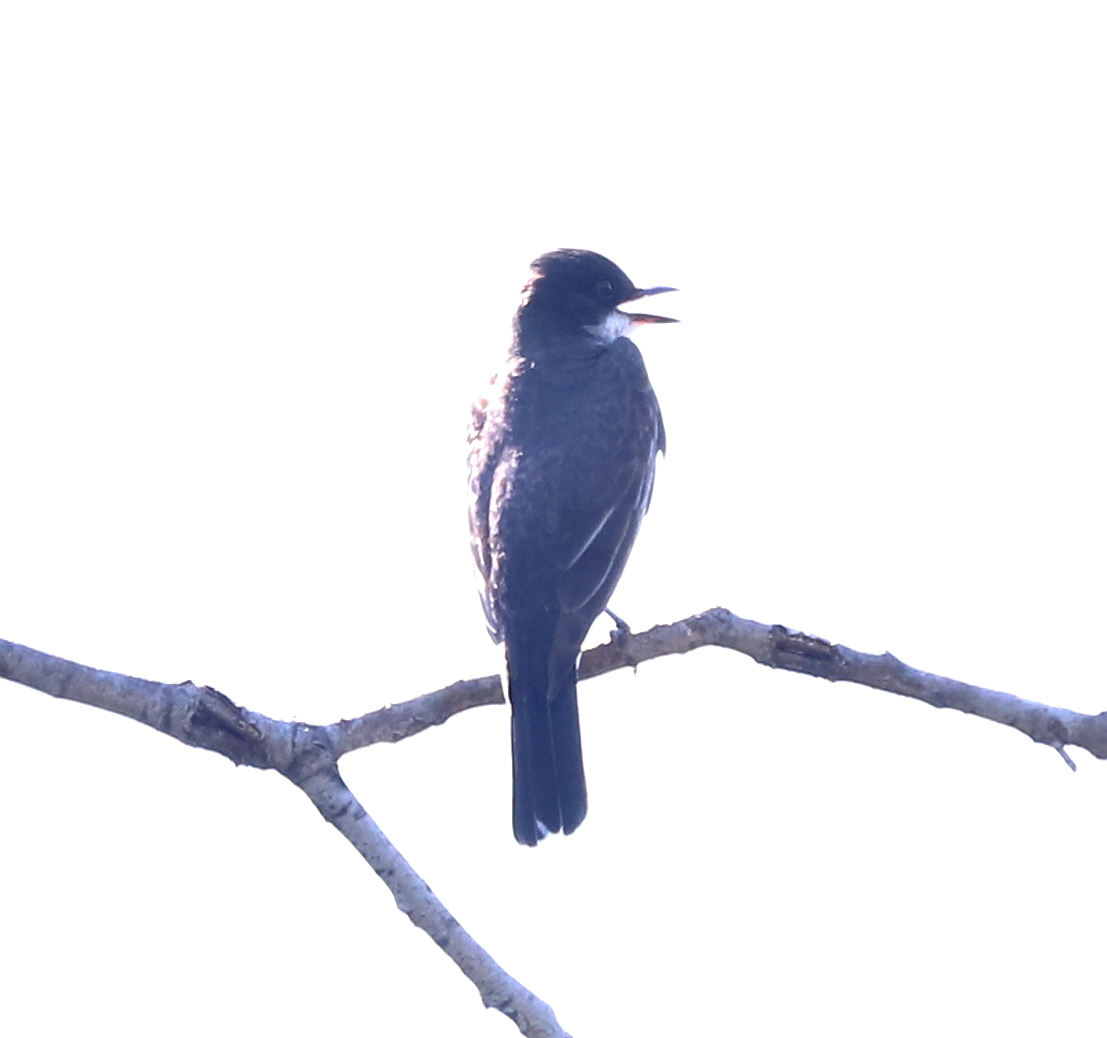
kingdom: Animalia
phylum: Chordata
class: Aves
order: Passeriformes
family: Tyrannidae
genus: Tyrannus
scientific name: Tyrannus tyrannus
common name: Eastern kingbird
